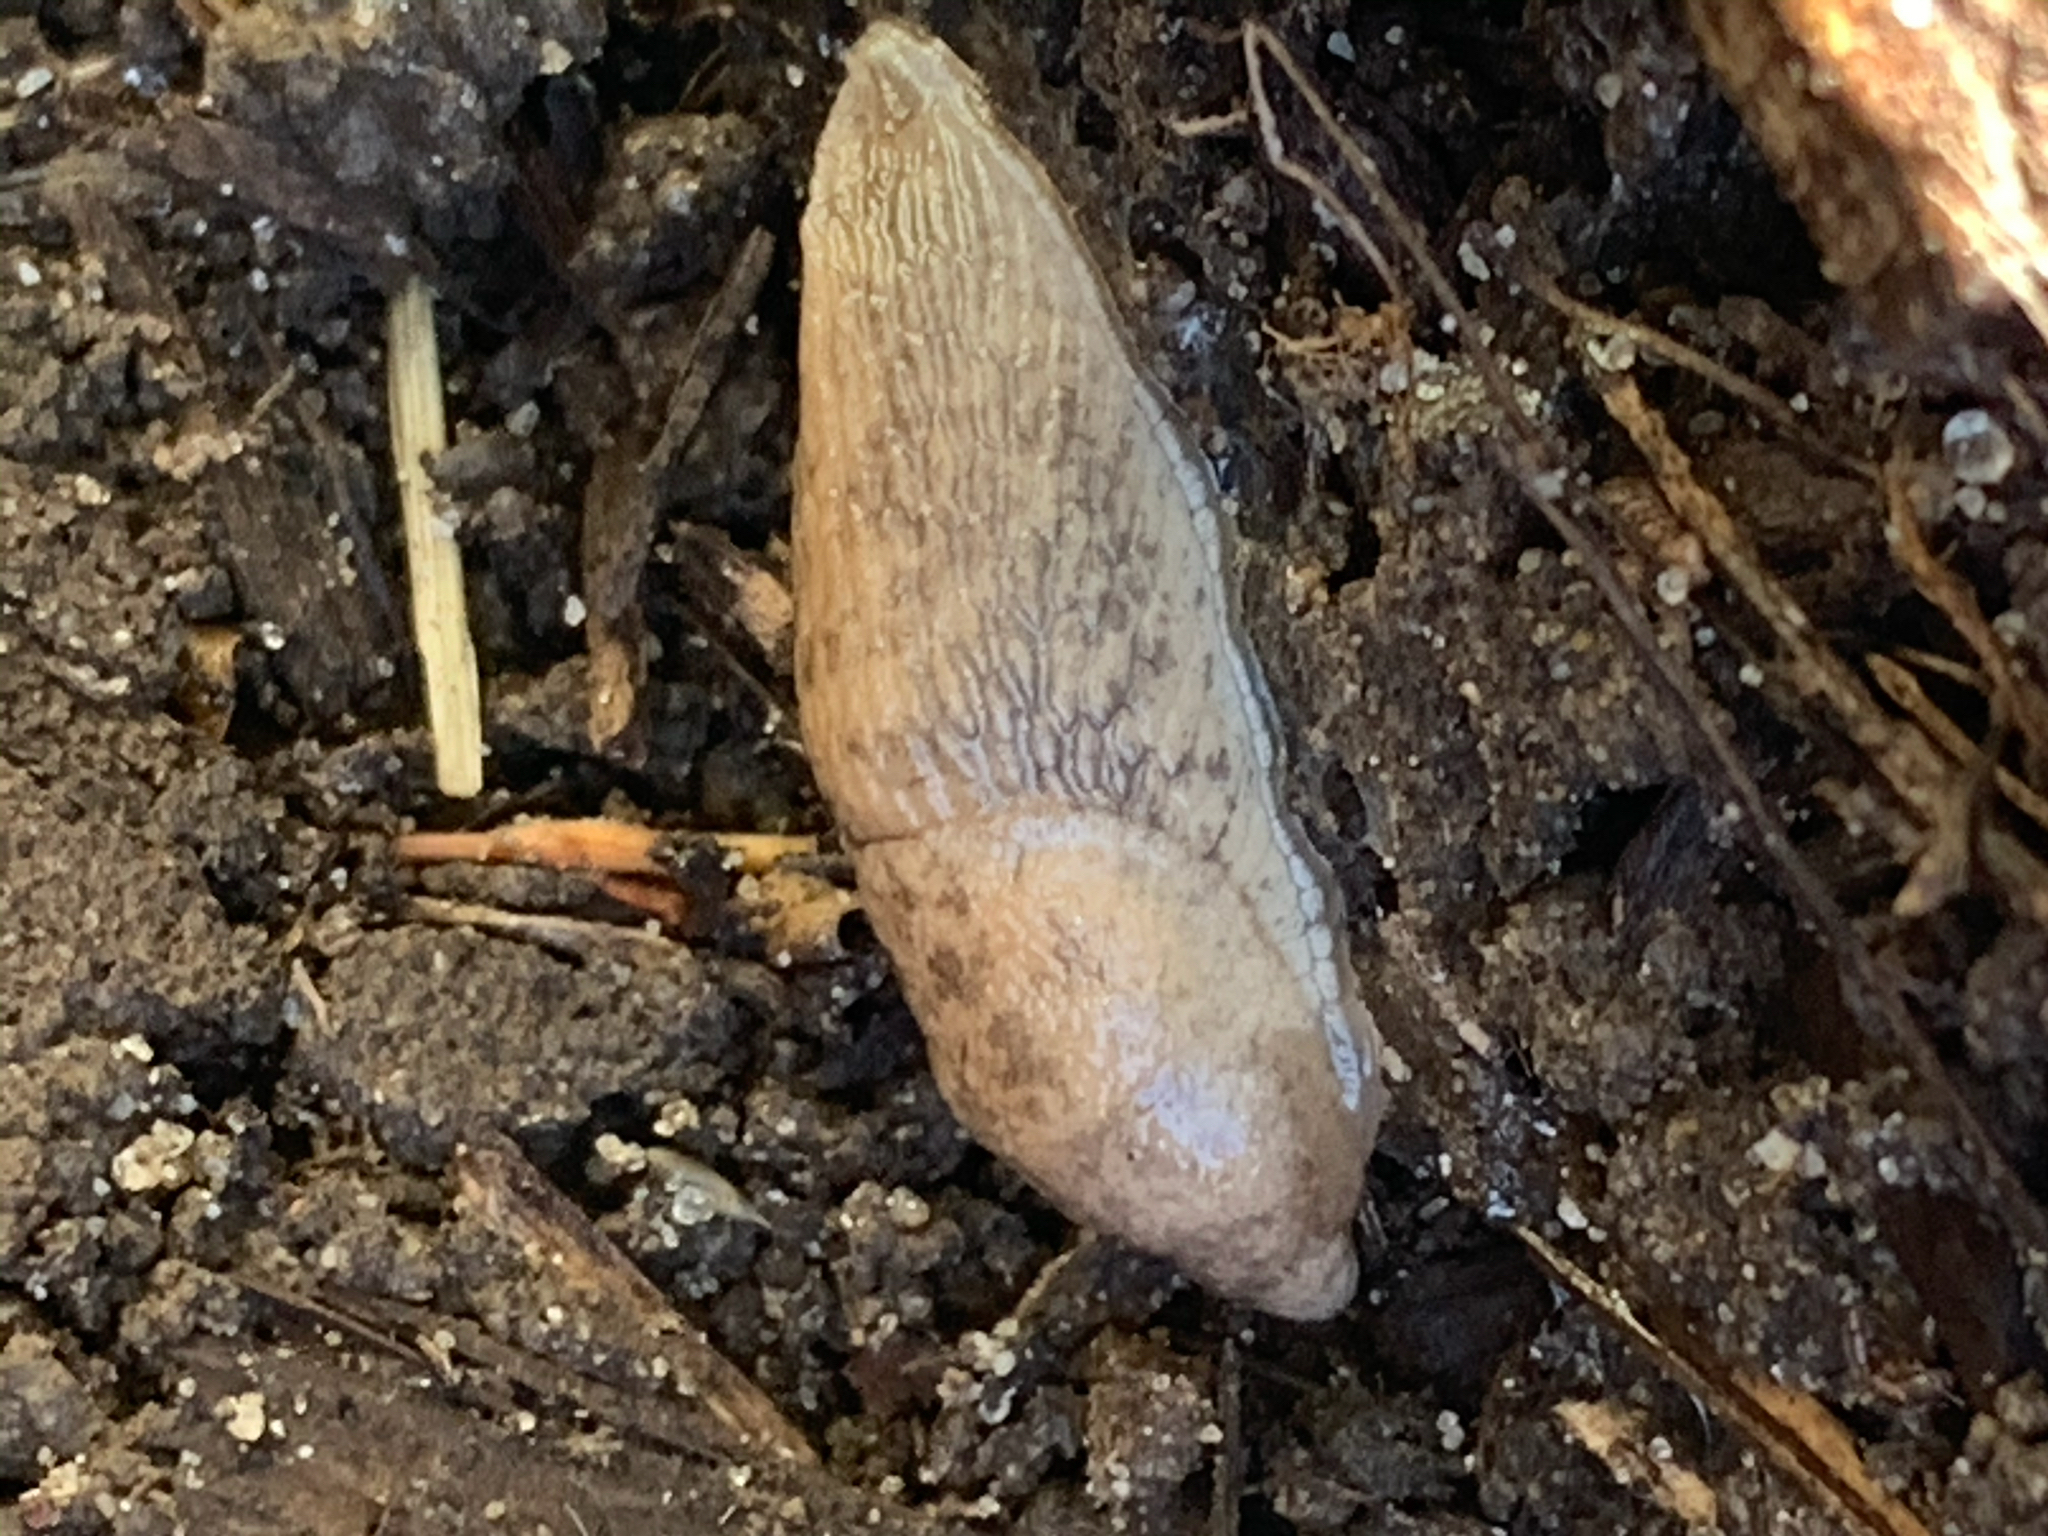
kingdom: Animalia
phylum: Mollusca
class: Gastropoda
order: Stylommatophora
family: Agriolimacidae
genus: Deroceras
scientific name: Deroceras reticulatum
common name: Gray field slug
